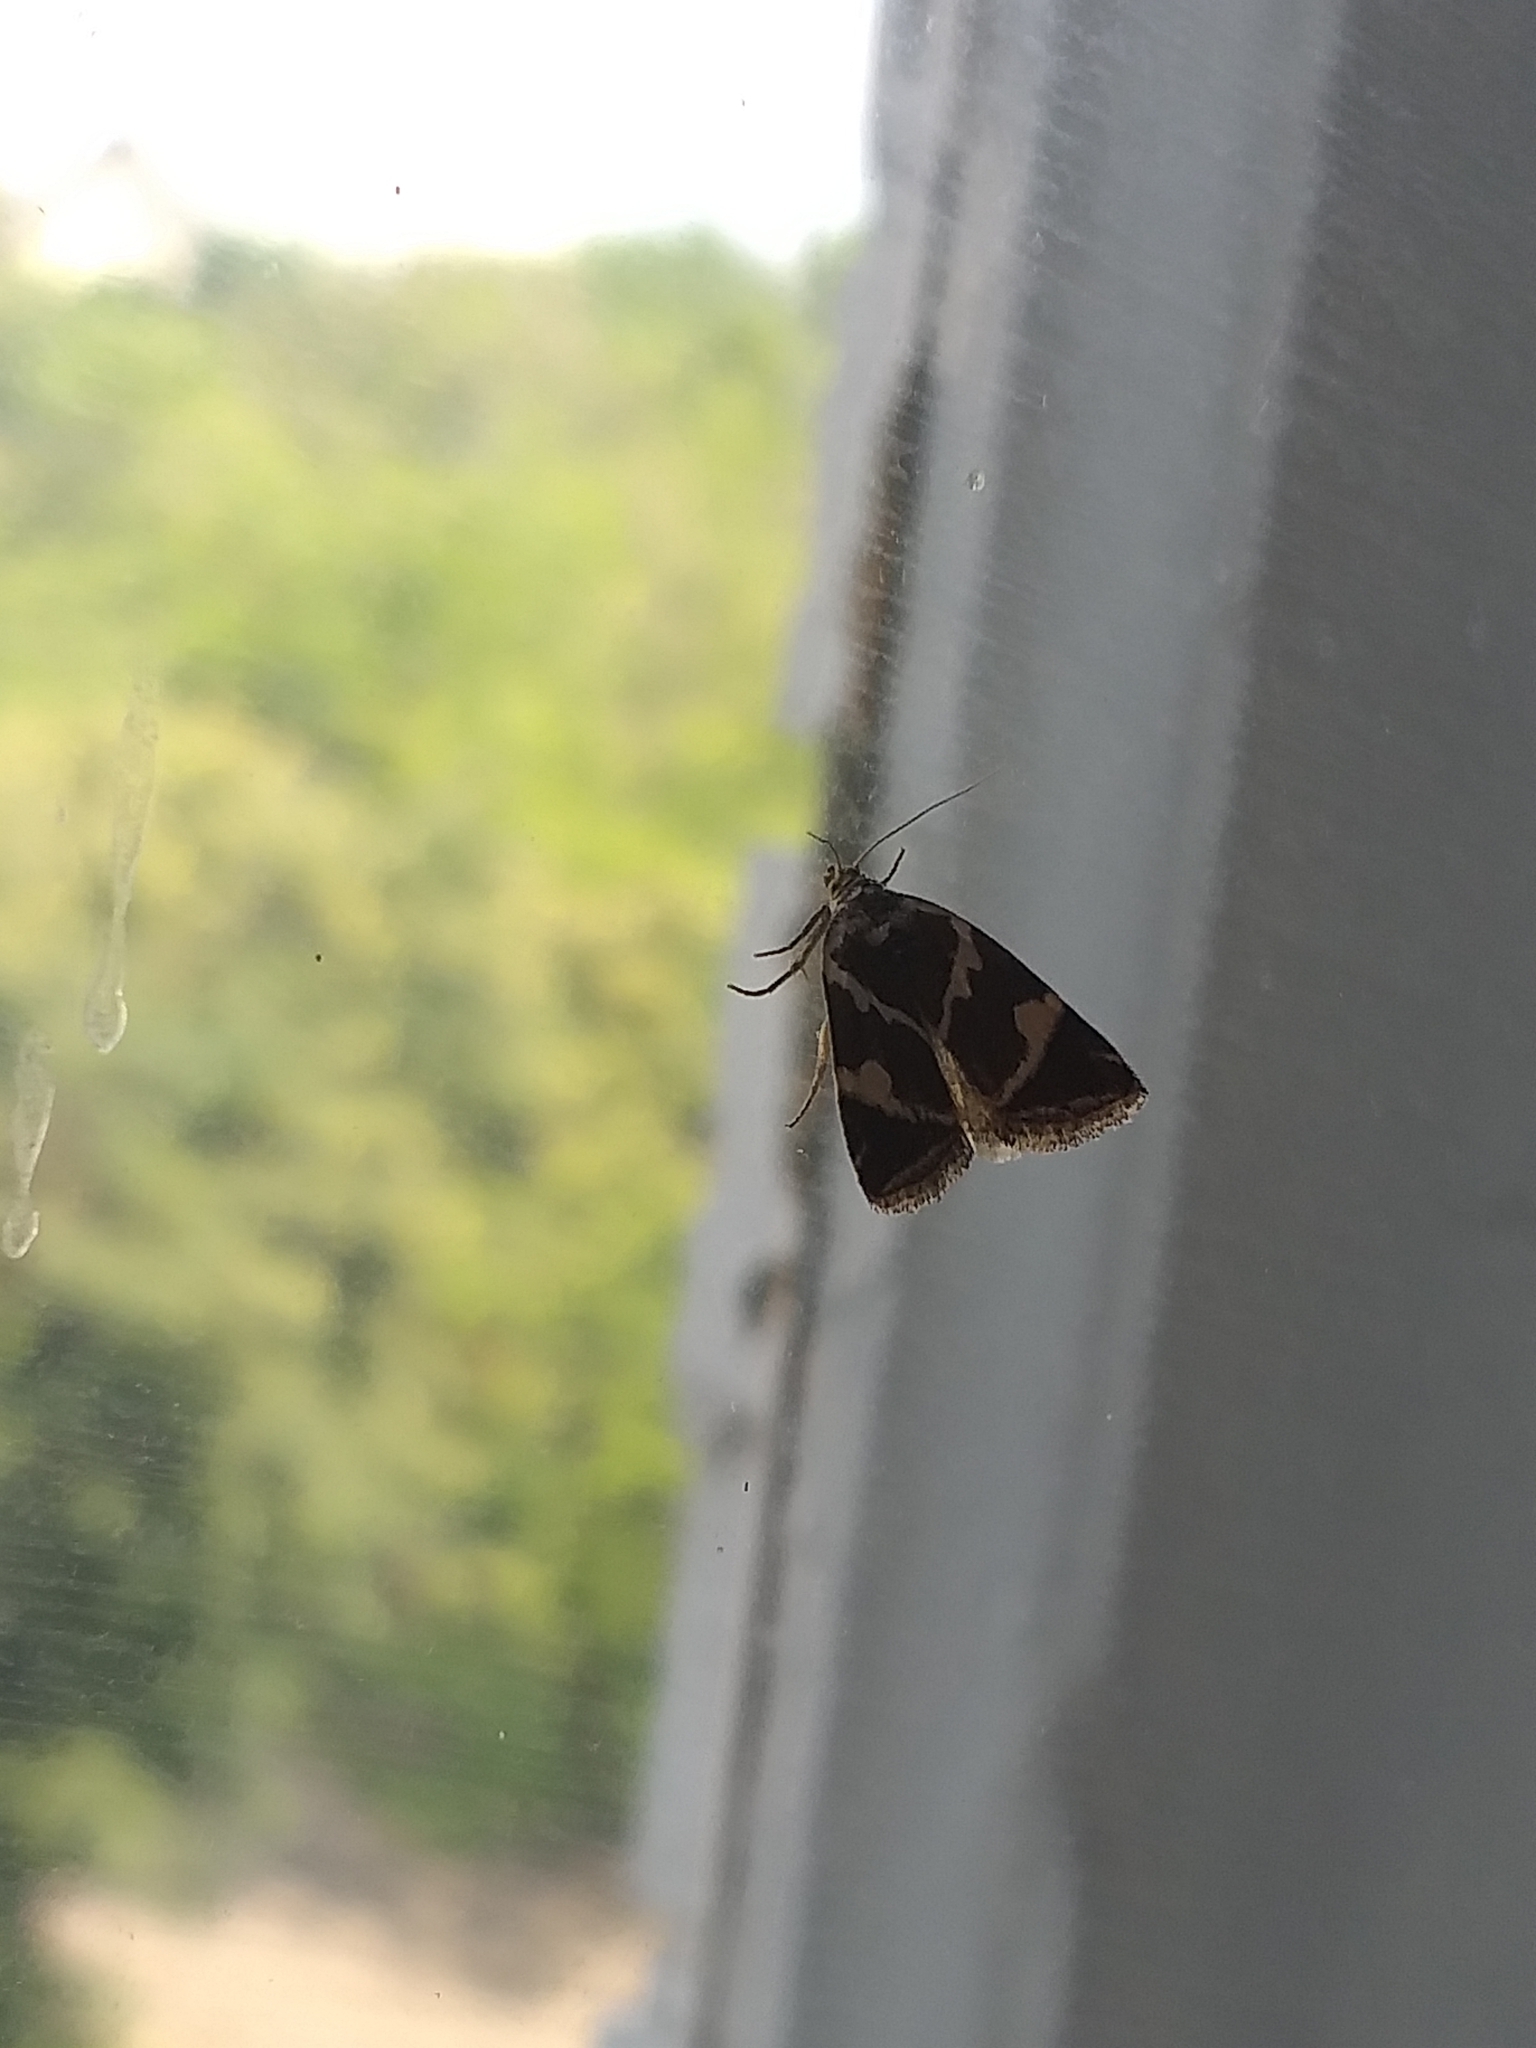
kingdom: Animalia
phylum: Arthropoda
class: Insecta
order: Lepidoptera
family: Noctuidae
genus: Deltote
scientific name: Deltote bankiana
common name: Silver barred
